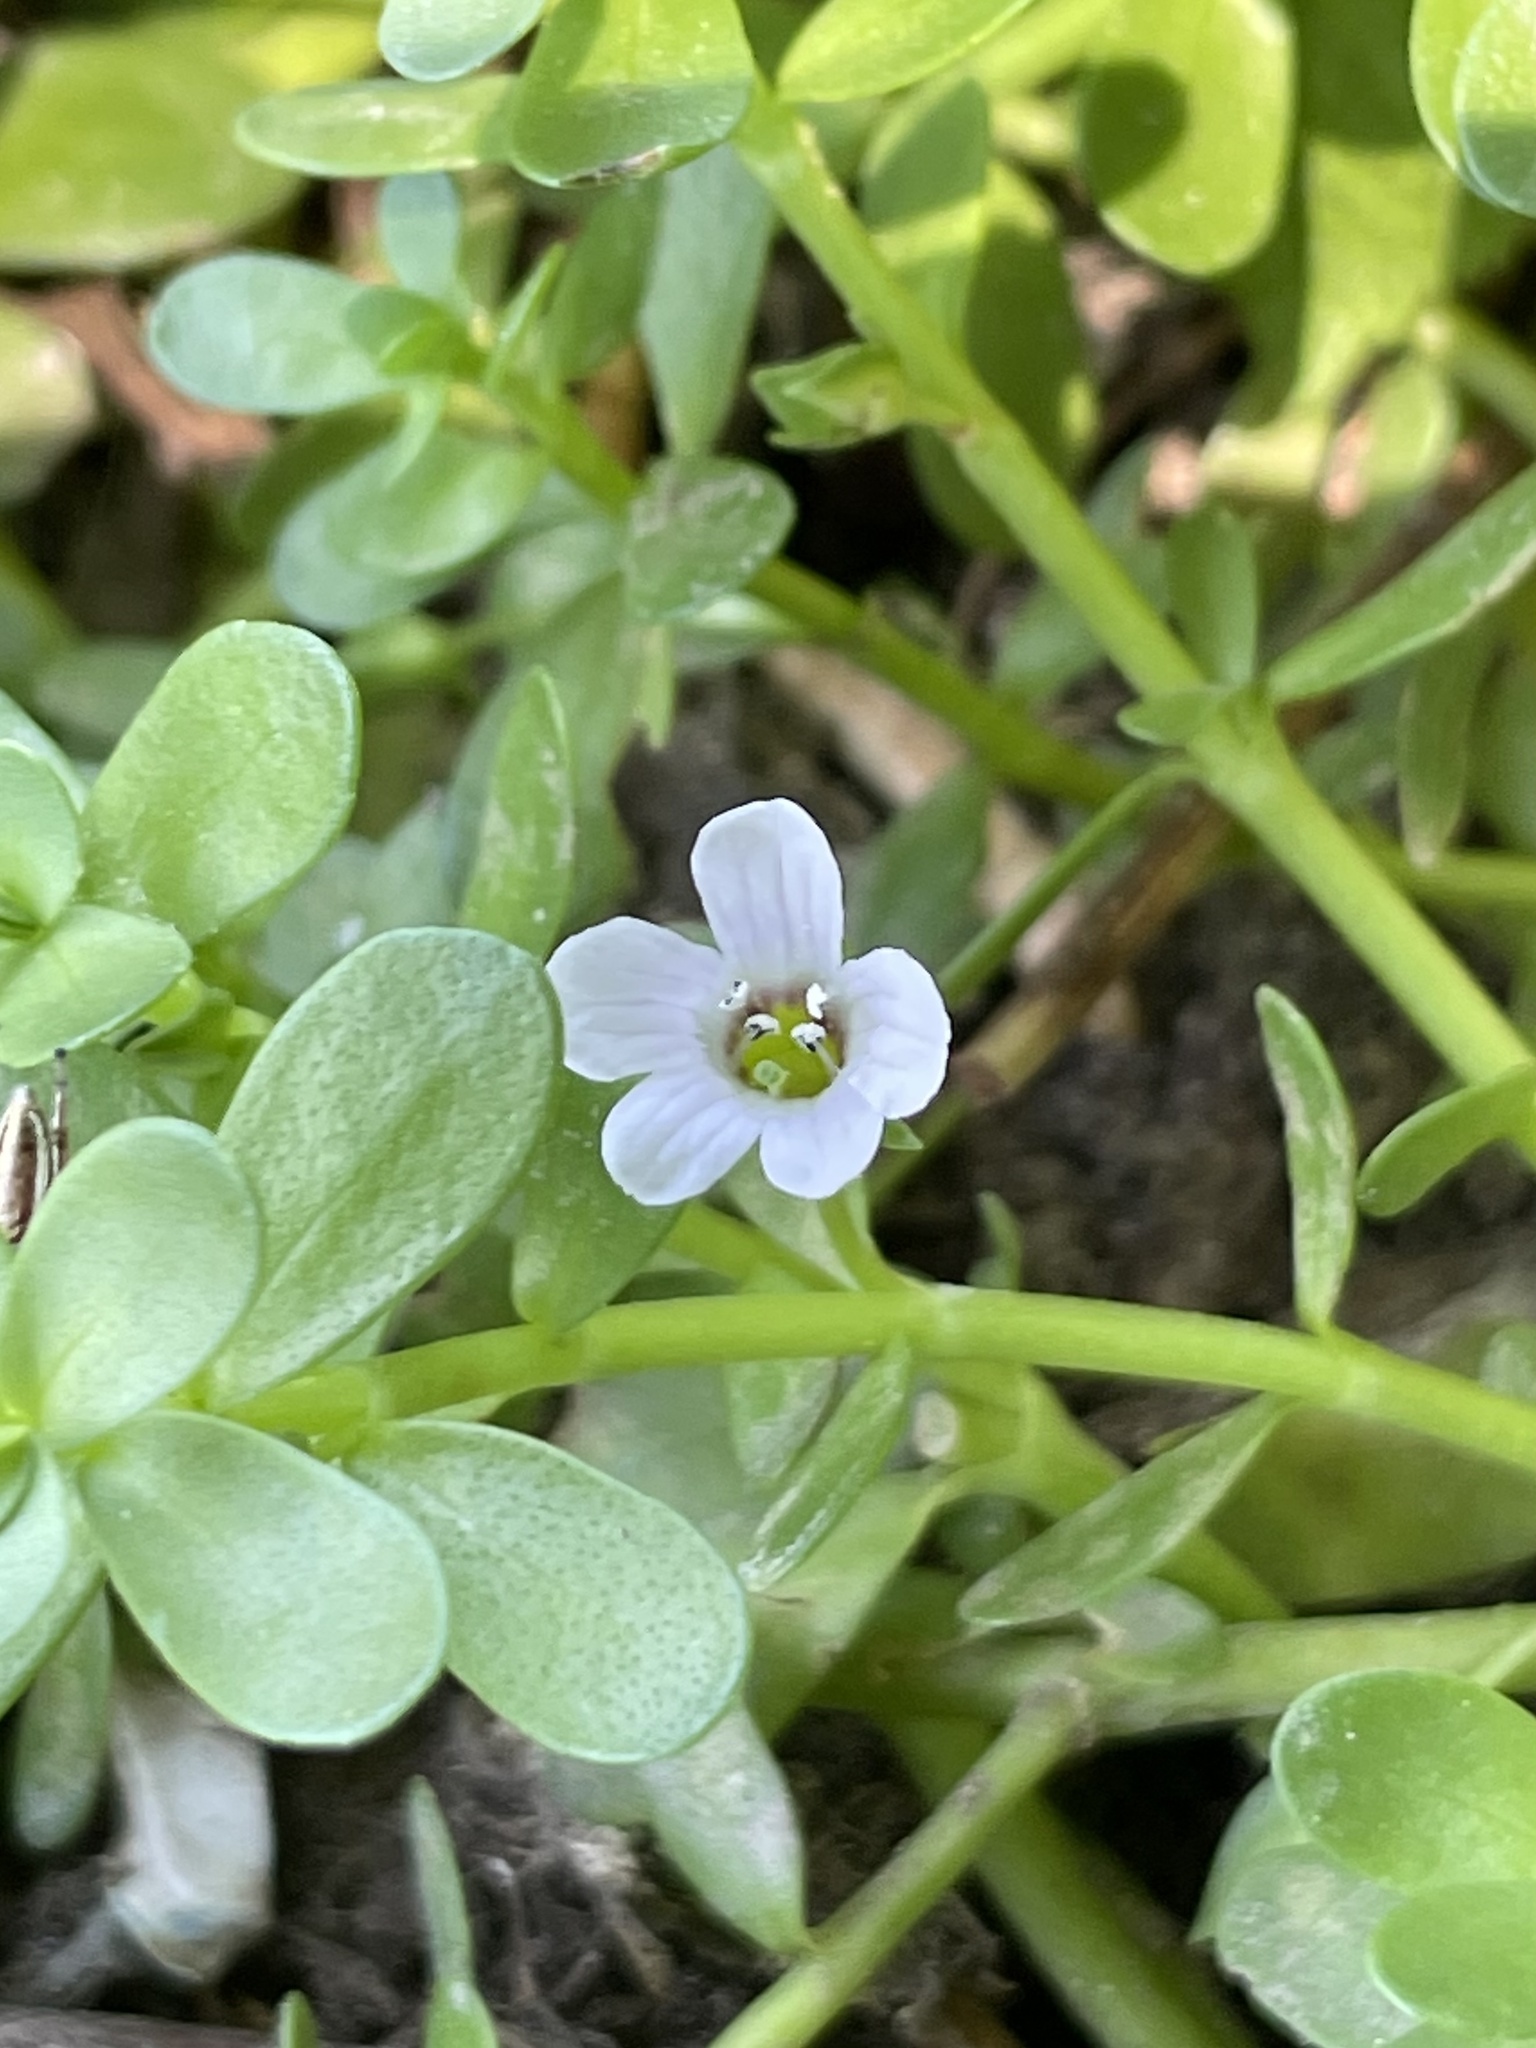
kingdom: Plantae
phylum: Tracheophyta
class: Magnoliopsida
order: Lamiales
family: Plantaginaceae
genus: Bacopa
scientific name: Bacopa monnieri
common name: Indian-pennywort
